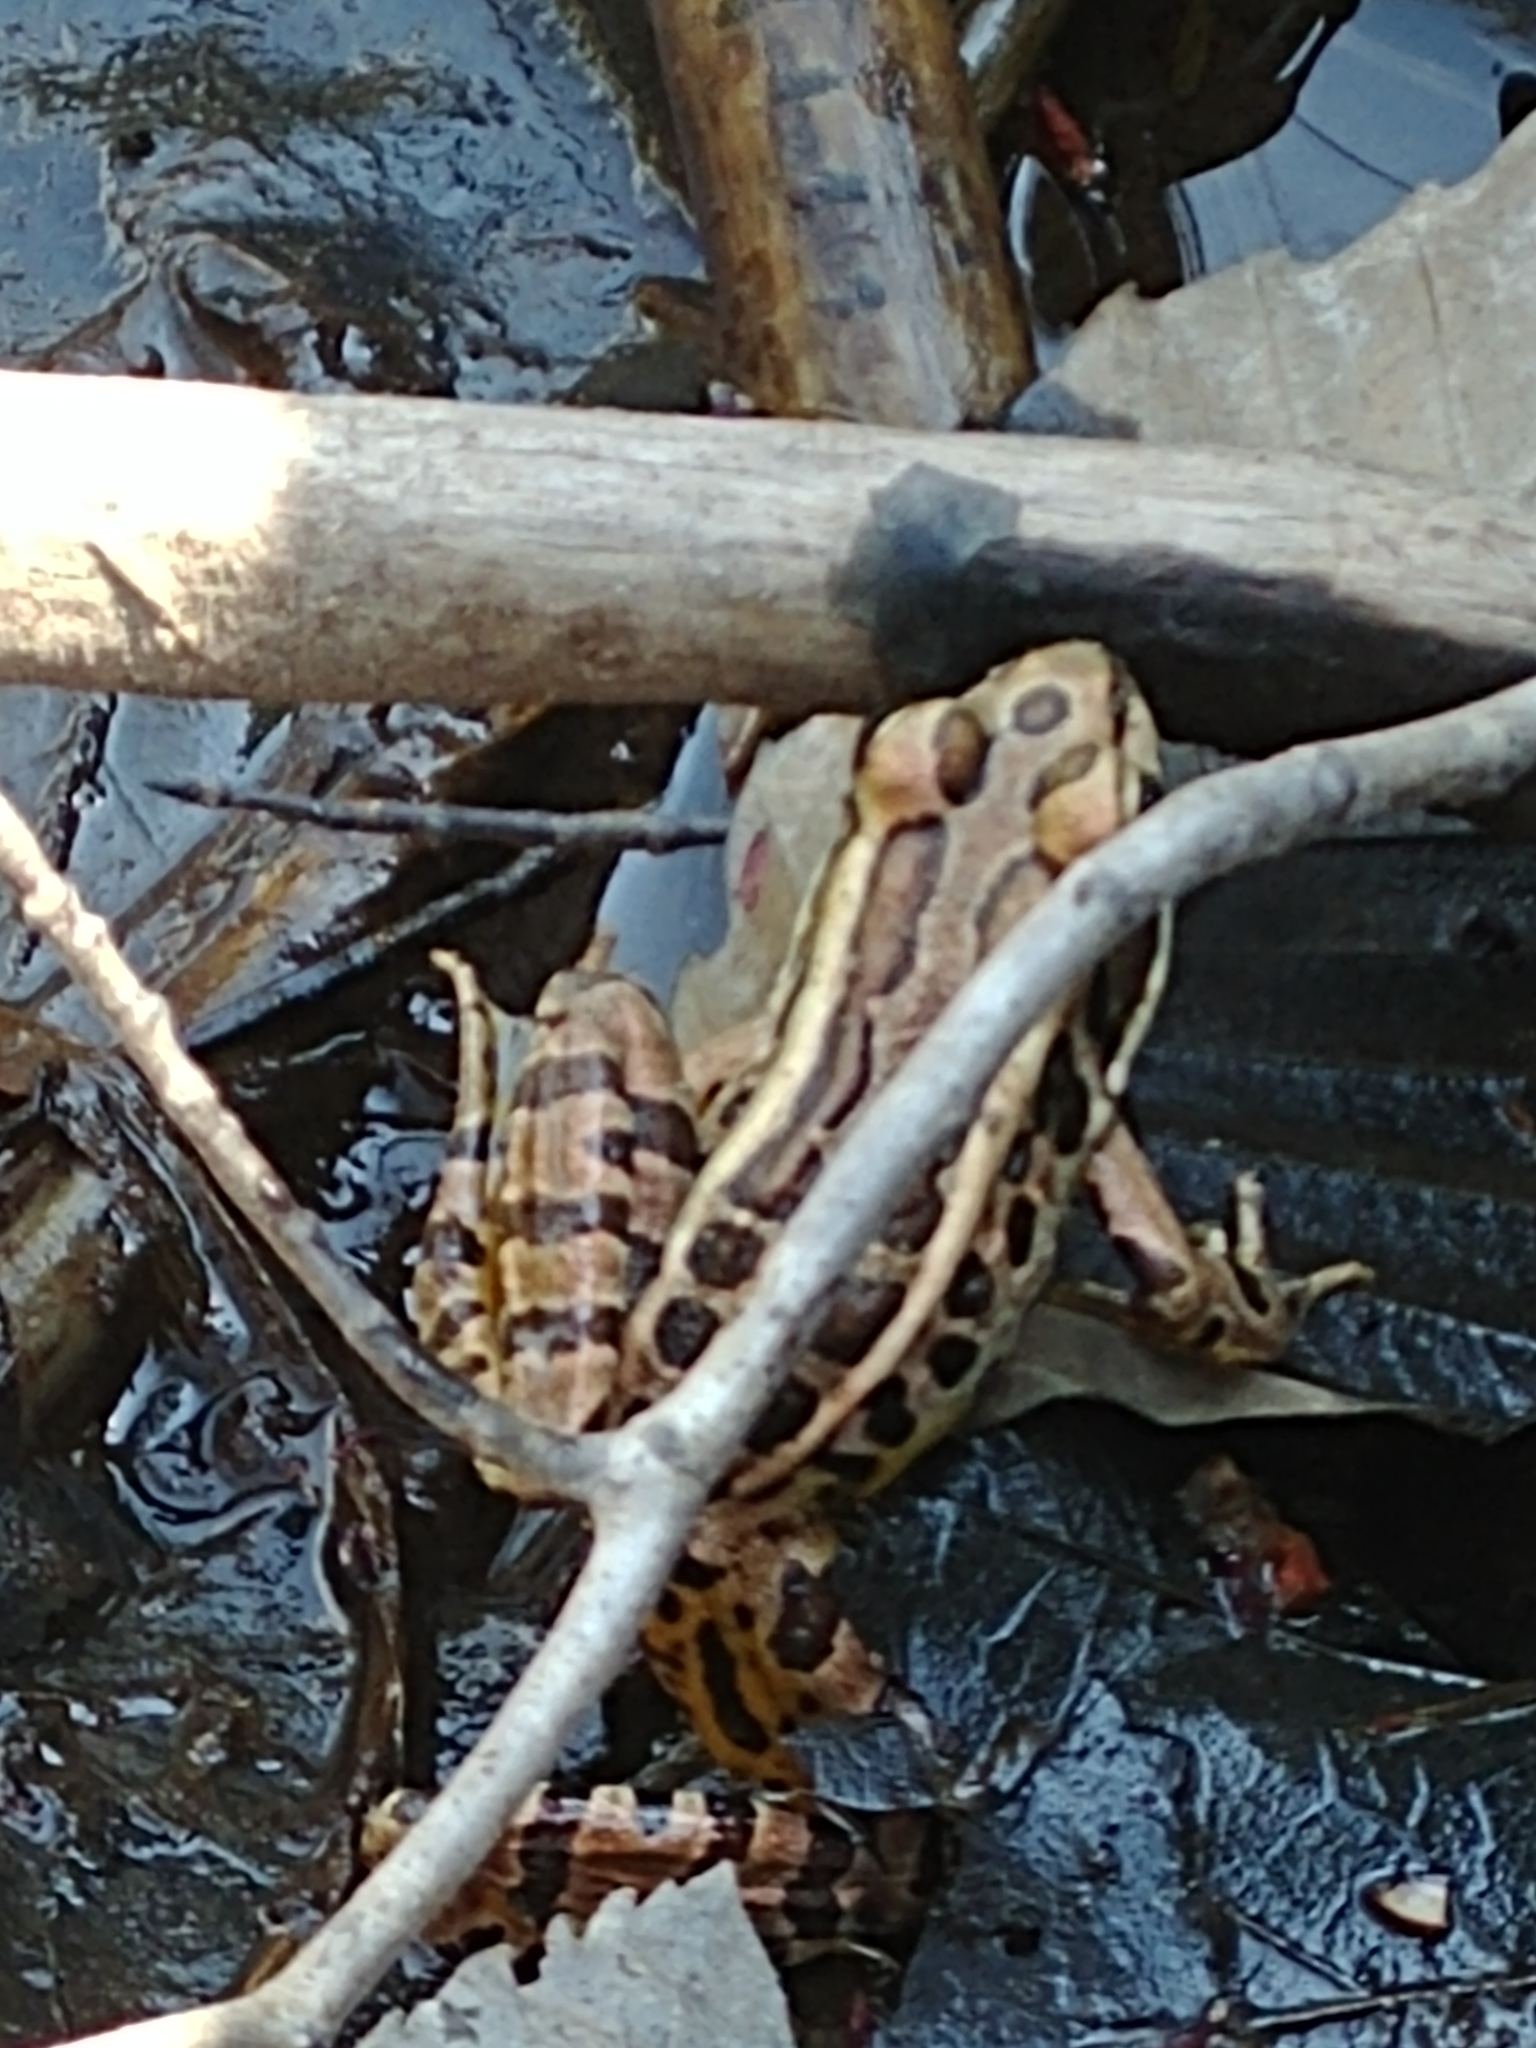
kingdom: Animalia
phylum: Chordata
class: Amphibia
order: Anura
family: Ranidae
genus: Lithobates
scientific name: Lithobates palustris
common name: Pickerel frog
